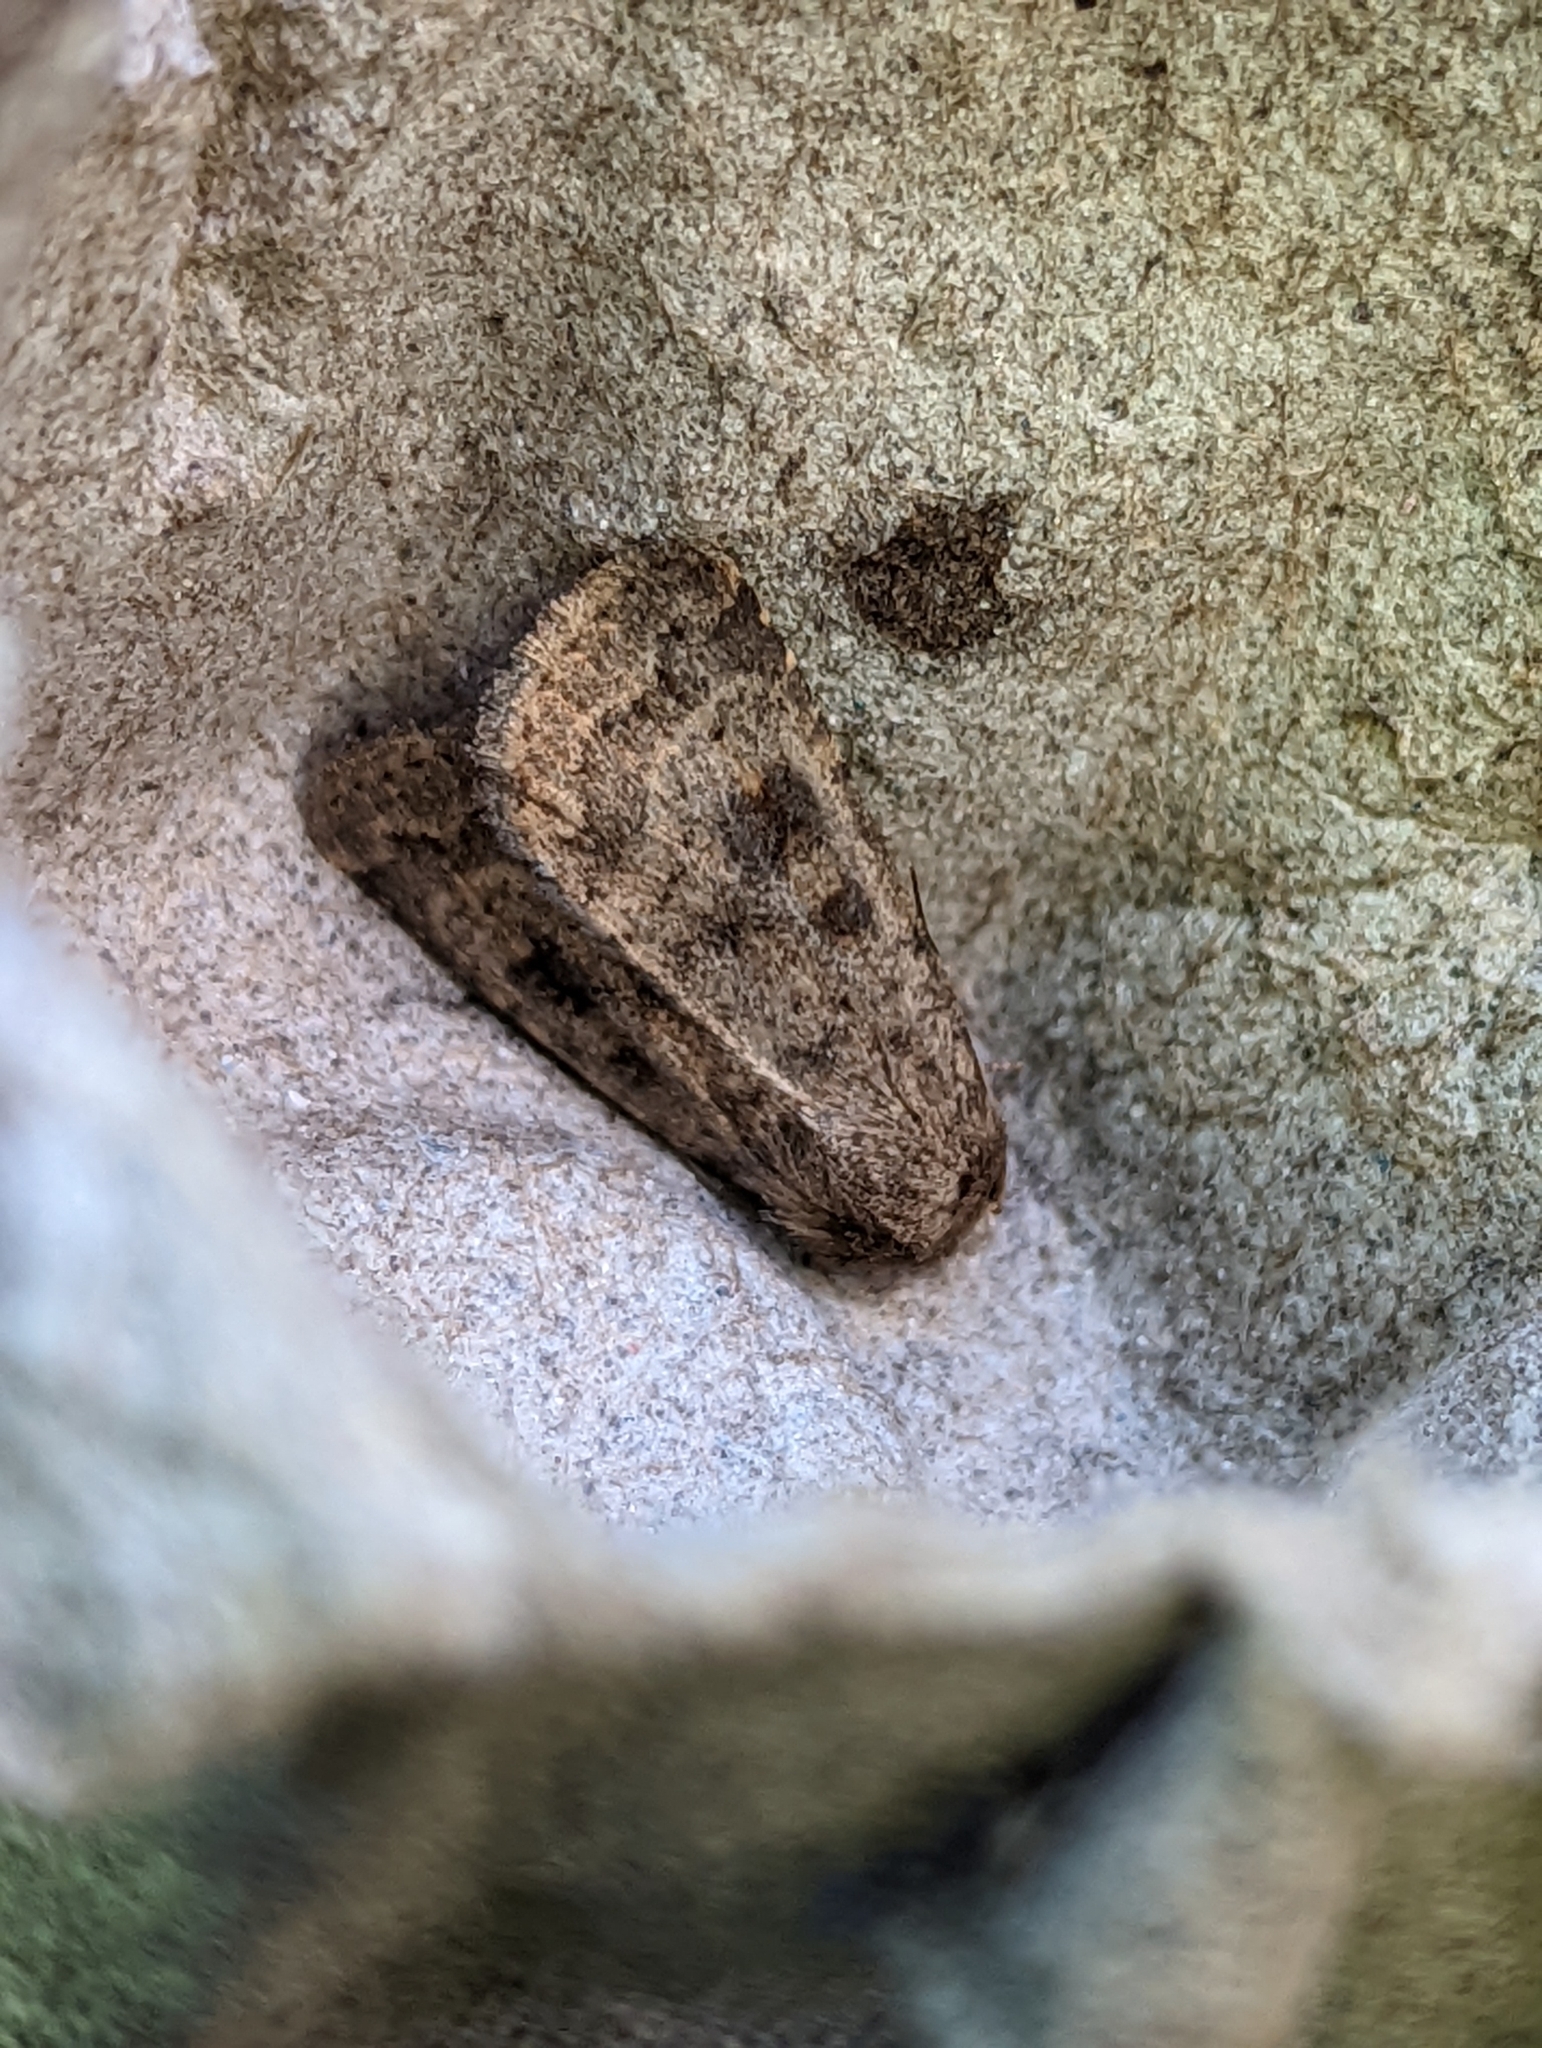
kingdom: Animalia
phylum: Arthropoda
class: Insecta
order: Lepidoptera
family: Noctuidae
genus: Caradrina
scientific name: Caradrina morpheus
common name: Mottled rustic
